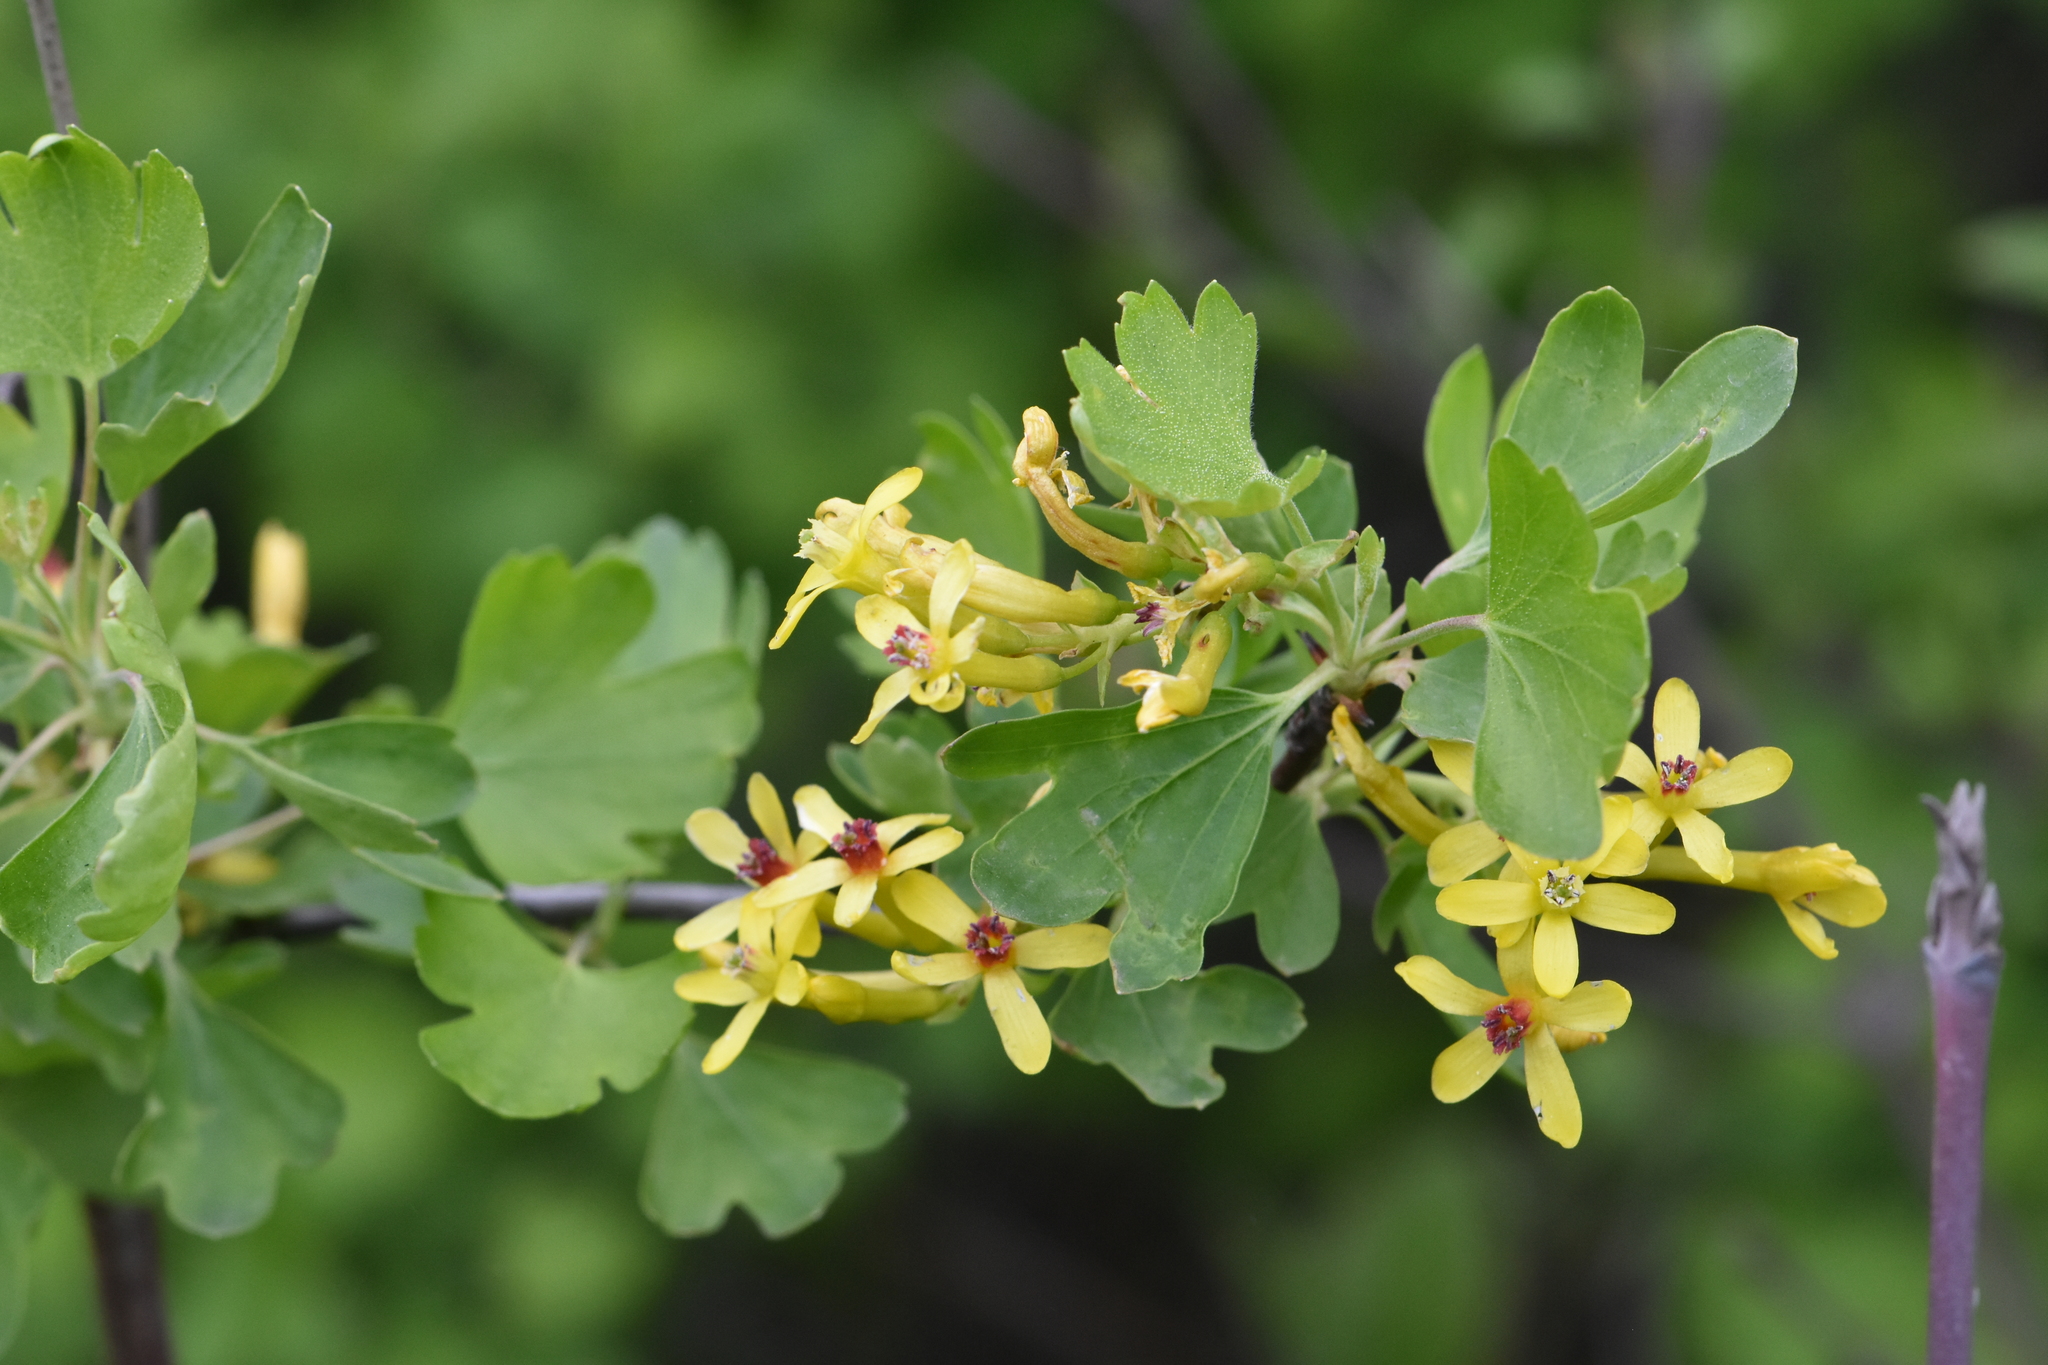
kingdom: Plantae
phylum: Tracheophyta
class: Magnoliopsida
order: Saxifragales
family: Grossulariaceae
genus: Ribes
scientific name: Ribes aureum
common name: Golden currant
